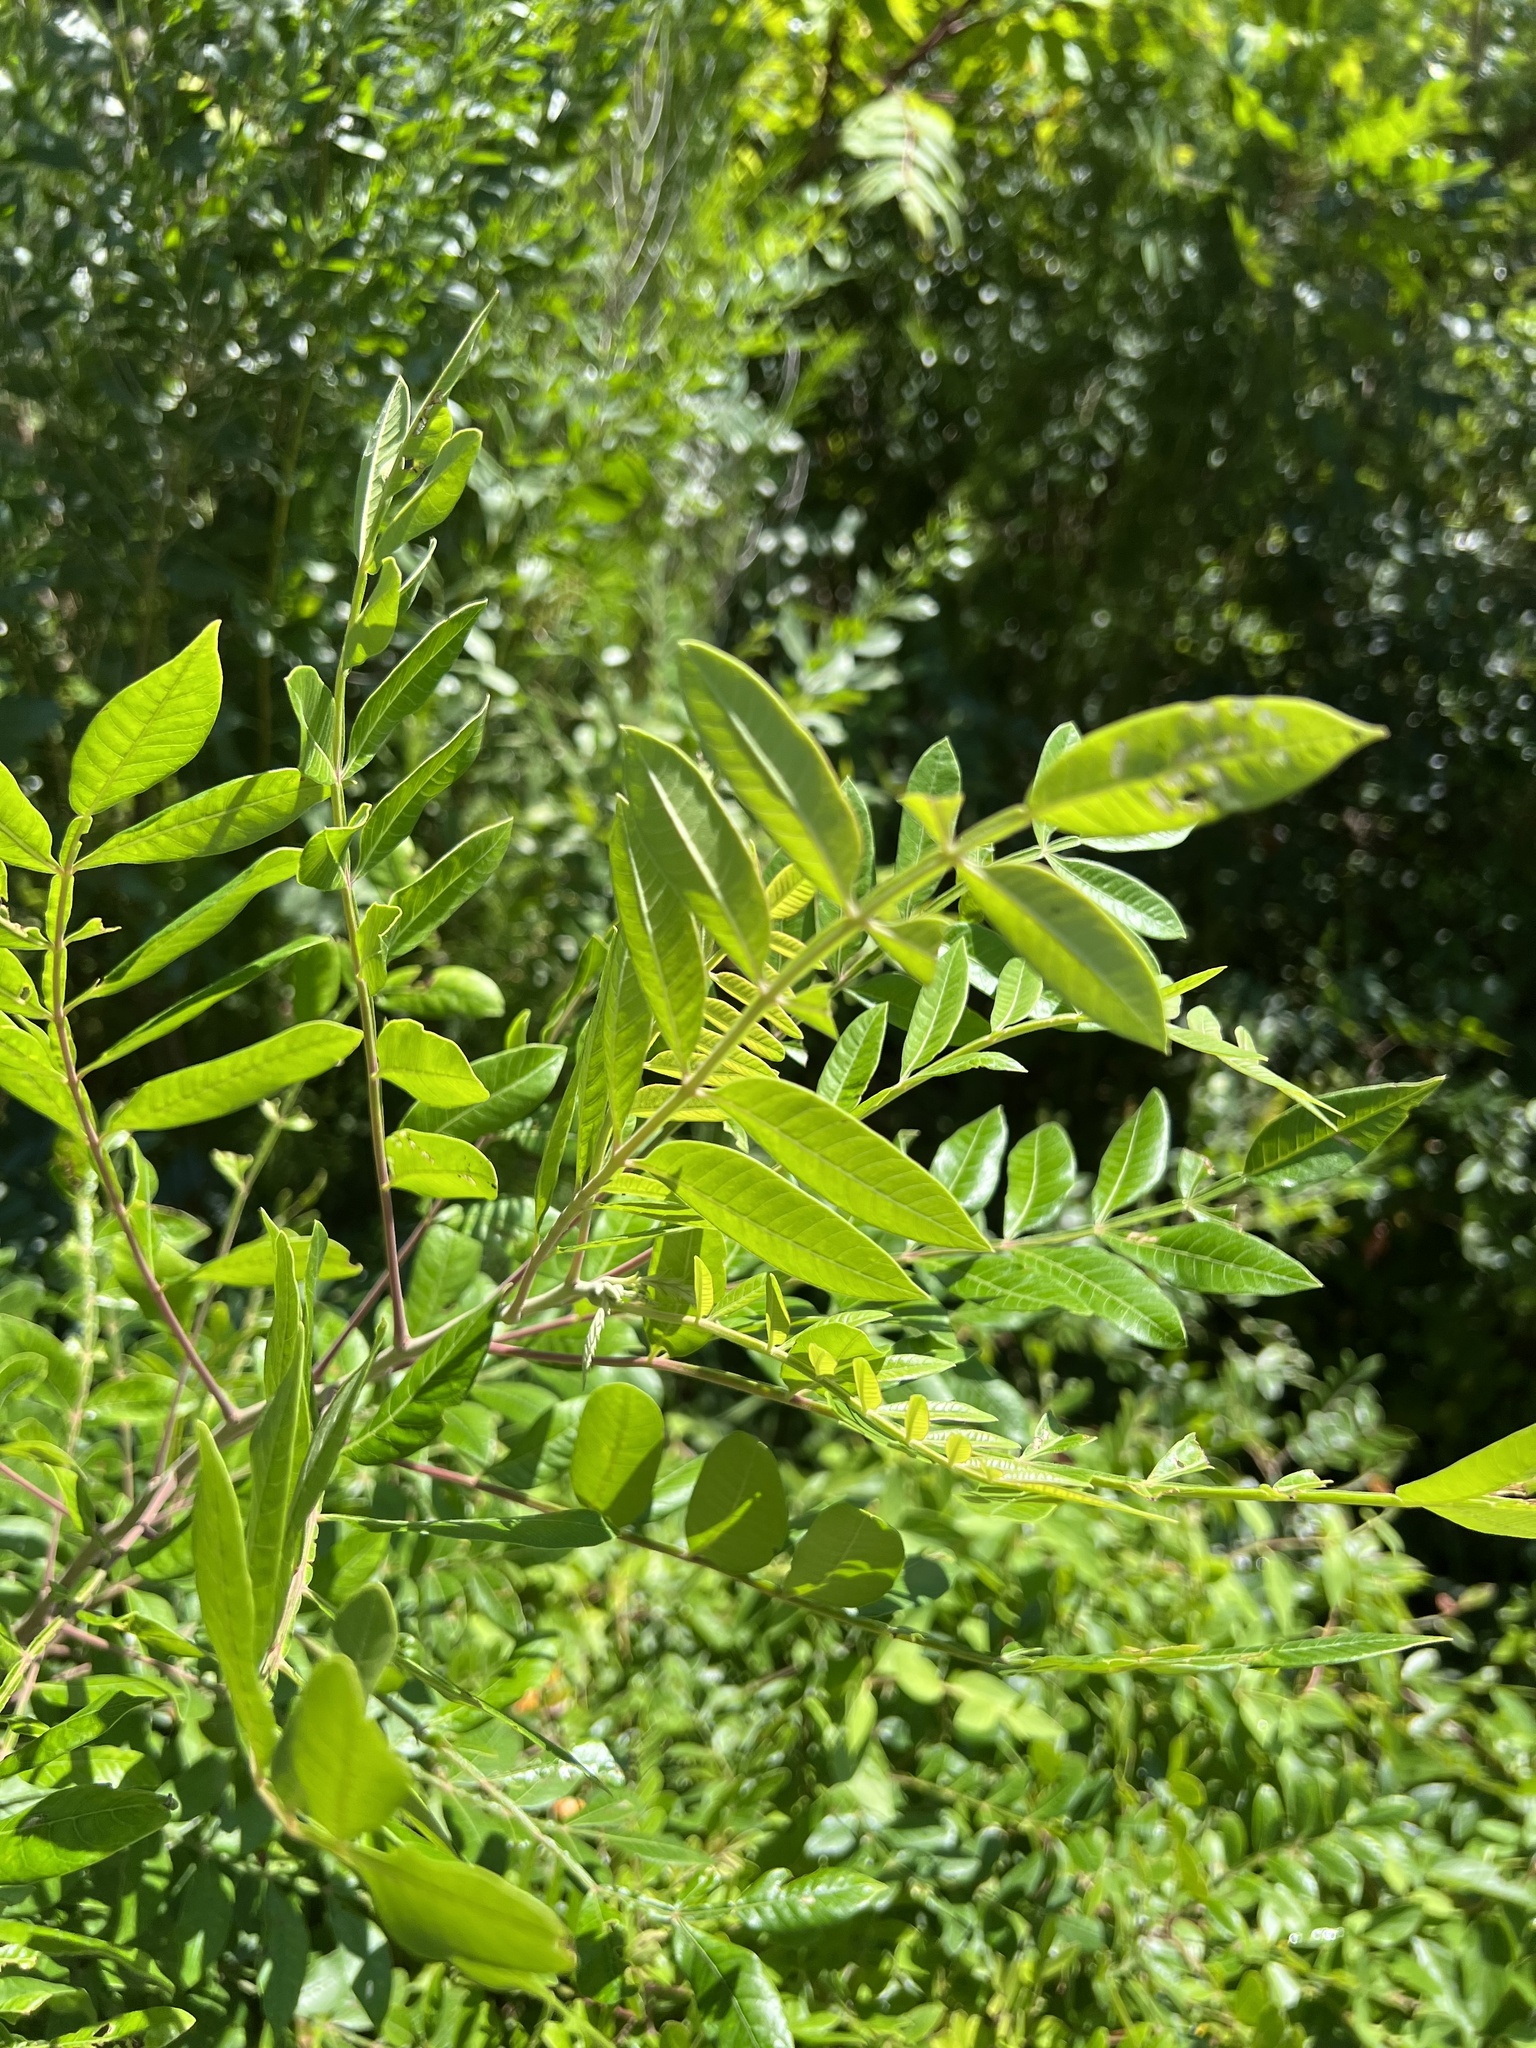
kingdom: Plantae
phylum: Tracheophyta
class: Magnoliopsida
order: Sapindales
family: Anacardiaceae
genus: Rhus
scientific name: Rhus copallina
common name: Shining sumac
